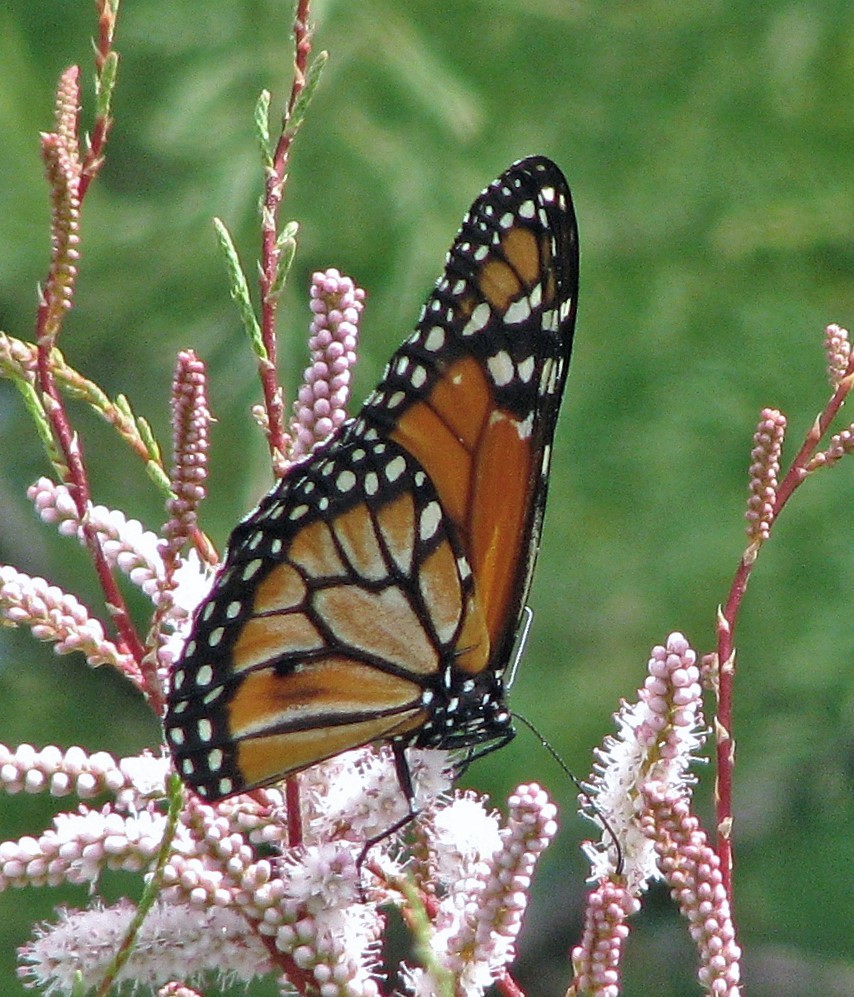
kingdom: Animalia
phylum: Arthropoda
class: Insecta
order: Lepidoptera
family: Nymphalidae
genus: Danaus
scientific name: Danaus erippus
